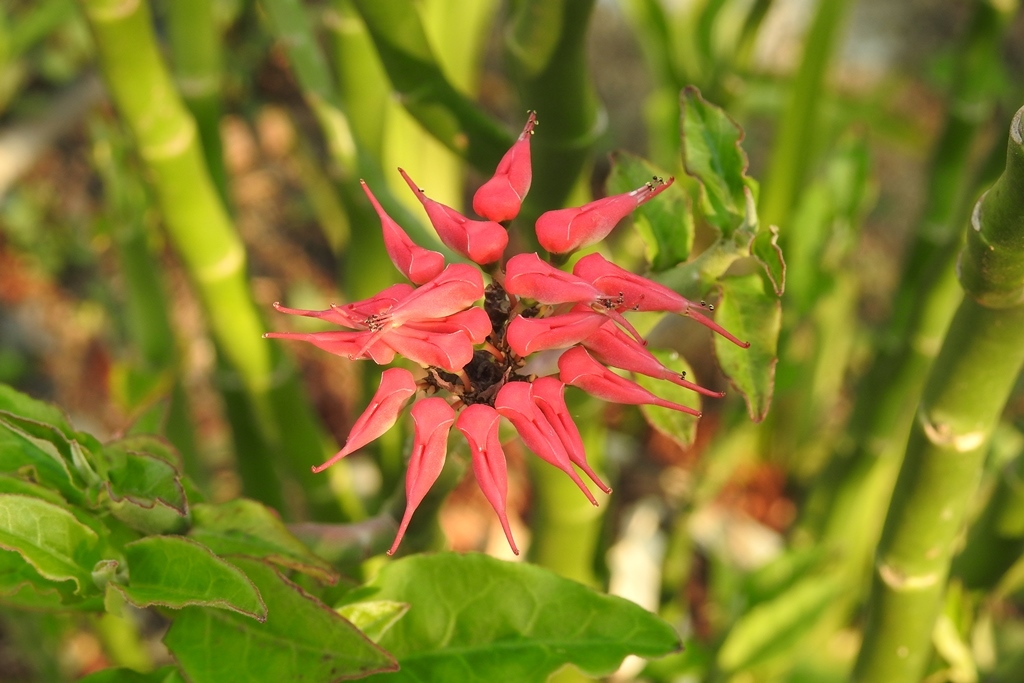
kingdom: Plantae
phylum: Tracheophyta
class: Magnoliopsida
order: Malpighiales
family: Euphorbiaceae
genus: Euphorbia
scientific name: Euphorbia tithymaloides
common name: Slipperplant
